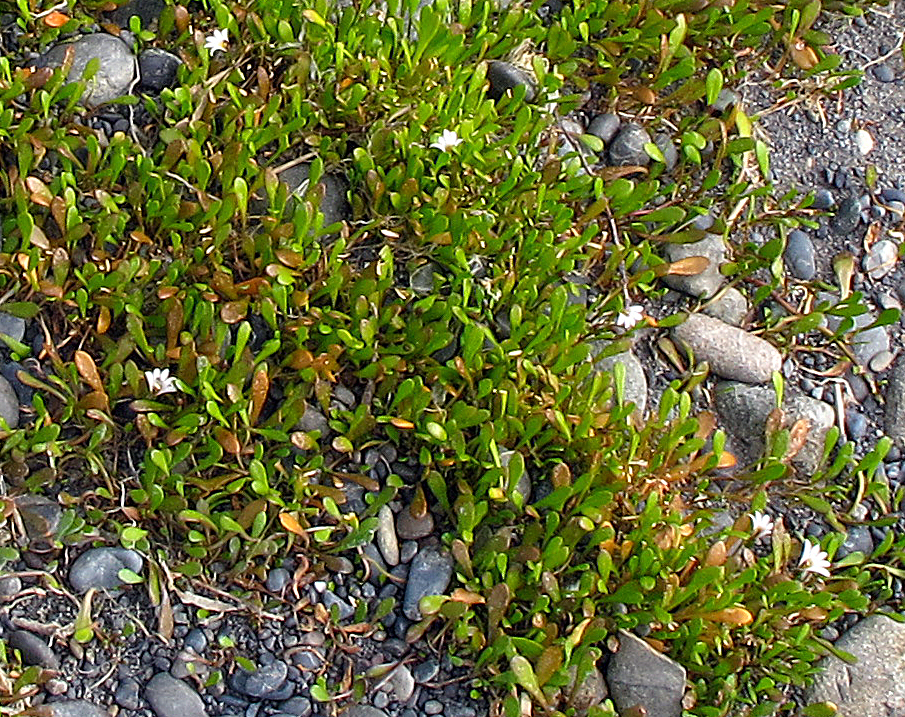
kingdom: Plantae
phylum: Tracheophyta
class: Magnoliopsida
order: Asterales
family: Goodeniaceae
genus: Goodenia
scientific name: Goodenia radicans
